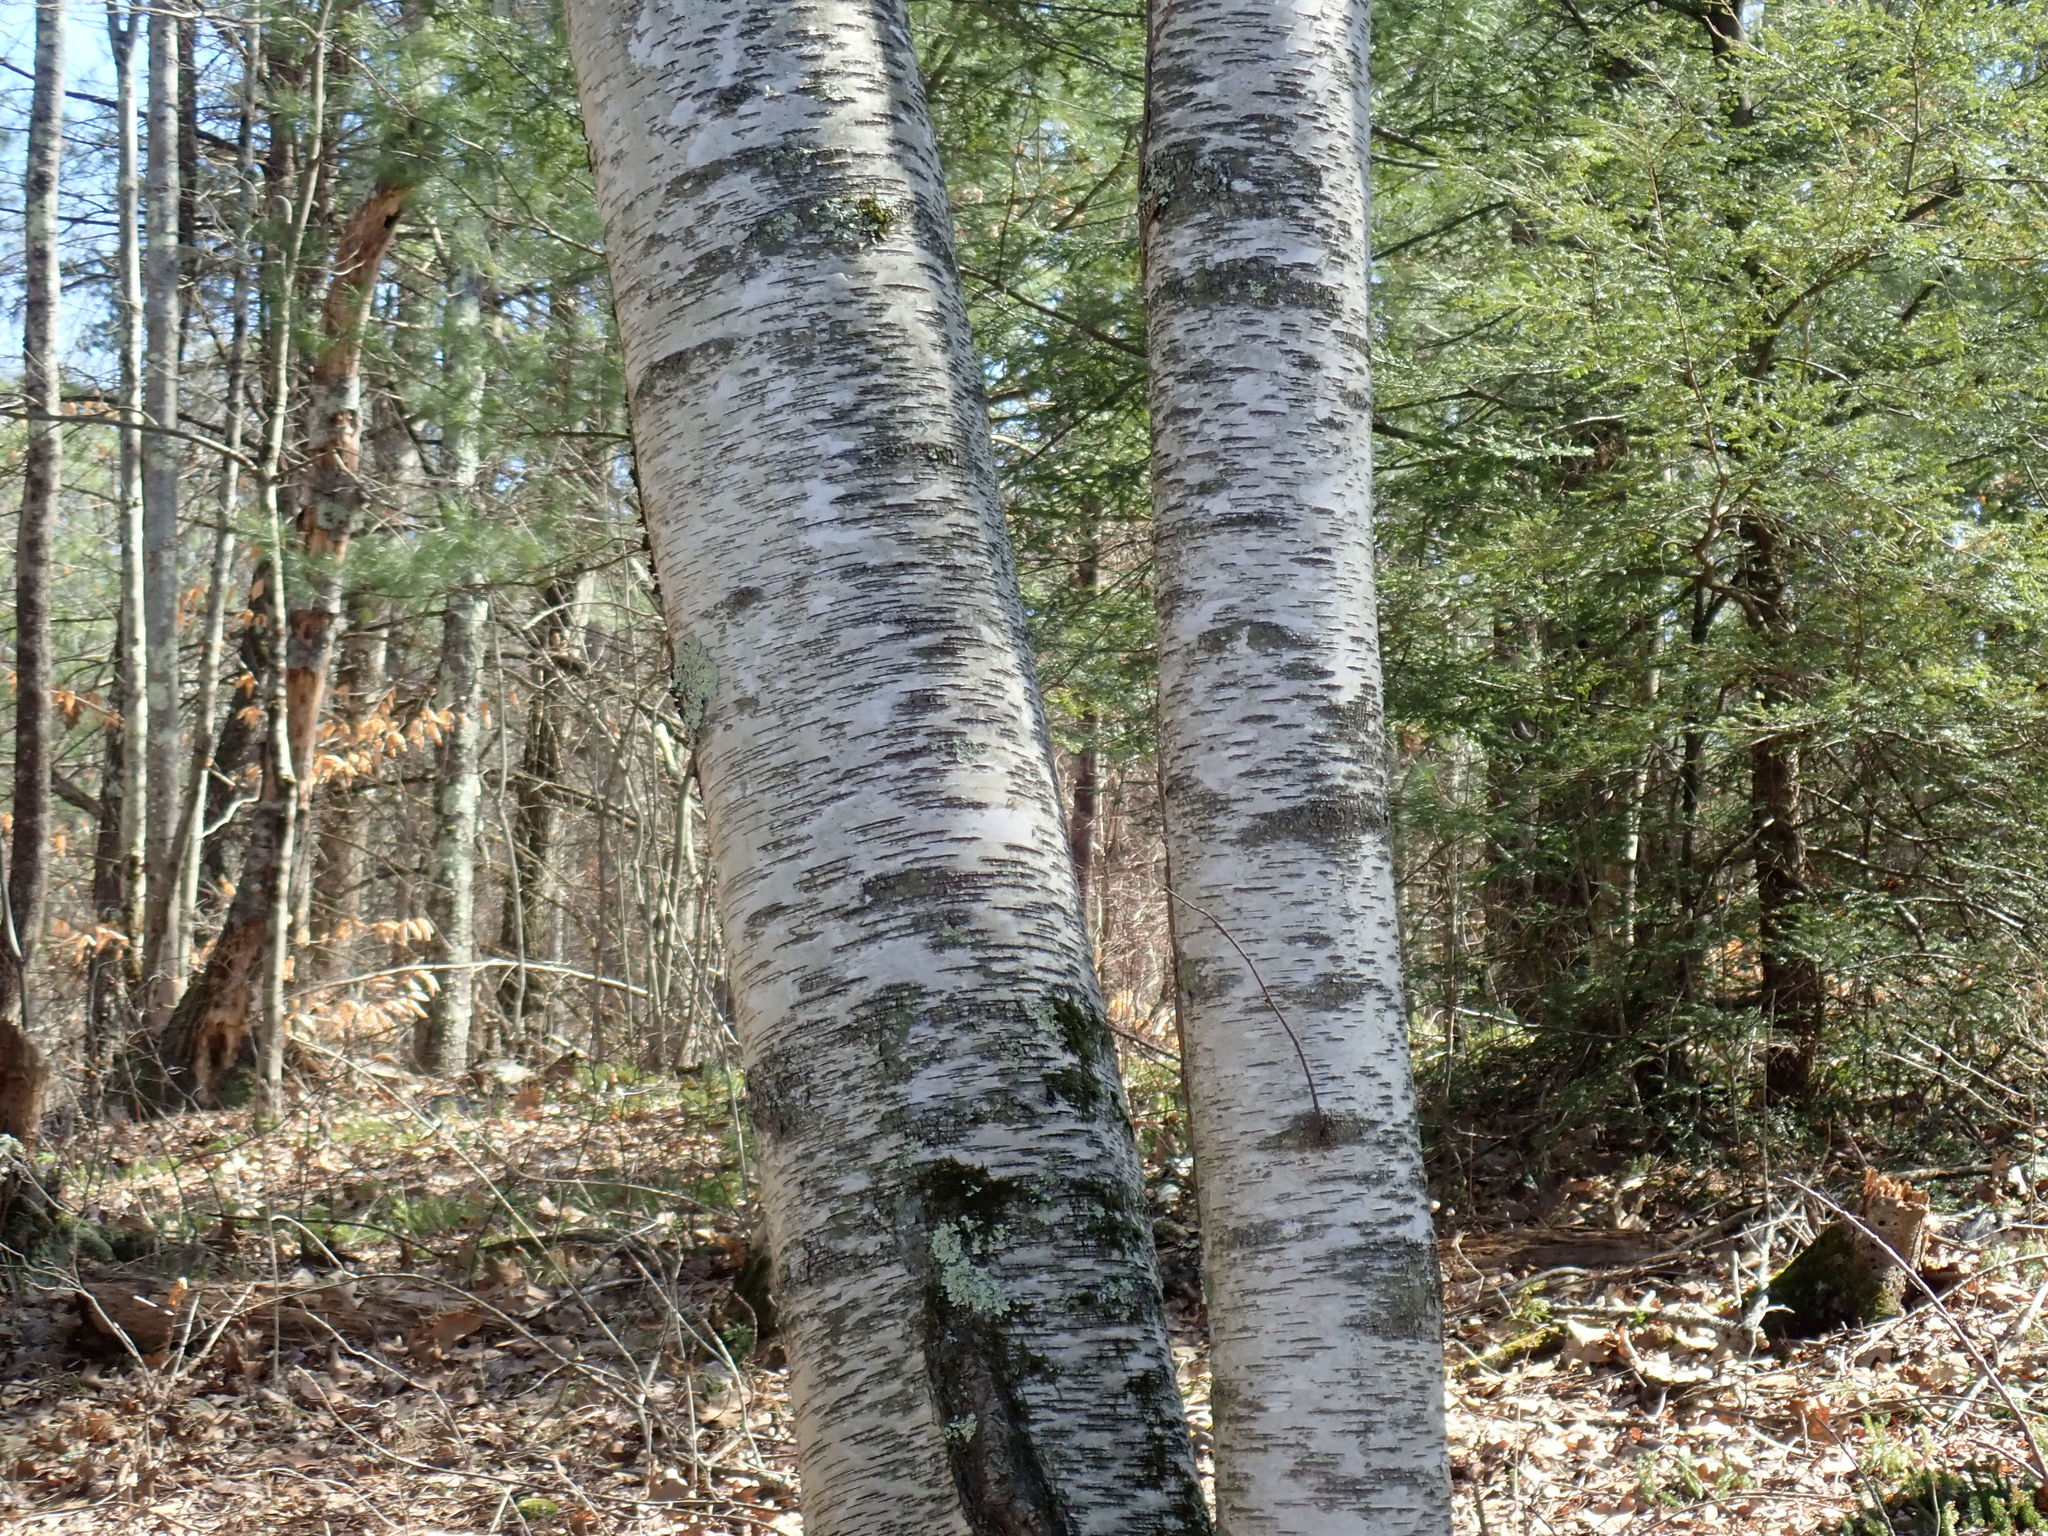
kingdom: Plantae
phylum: Tracheophyta
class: Magnoliopsida
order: Fagales
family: Betulaceae
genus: Betula
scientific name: Betula papyrifera
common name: Paper birch
